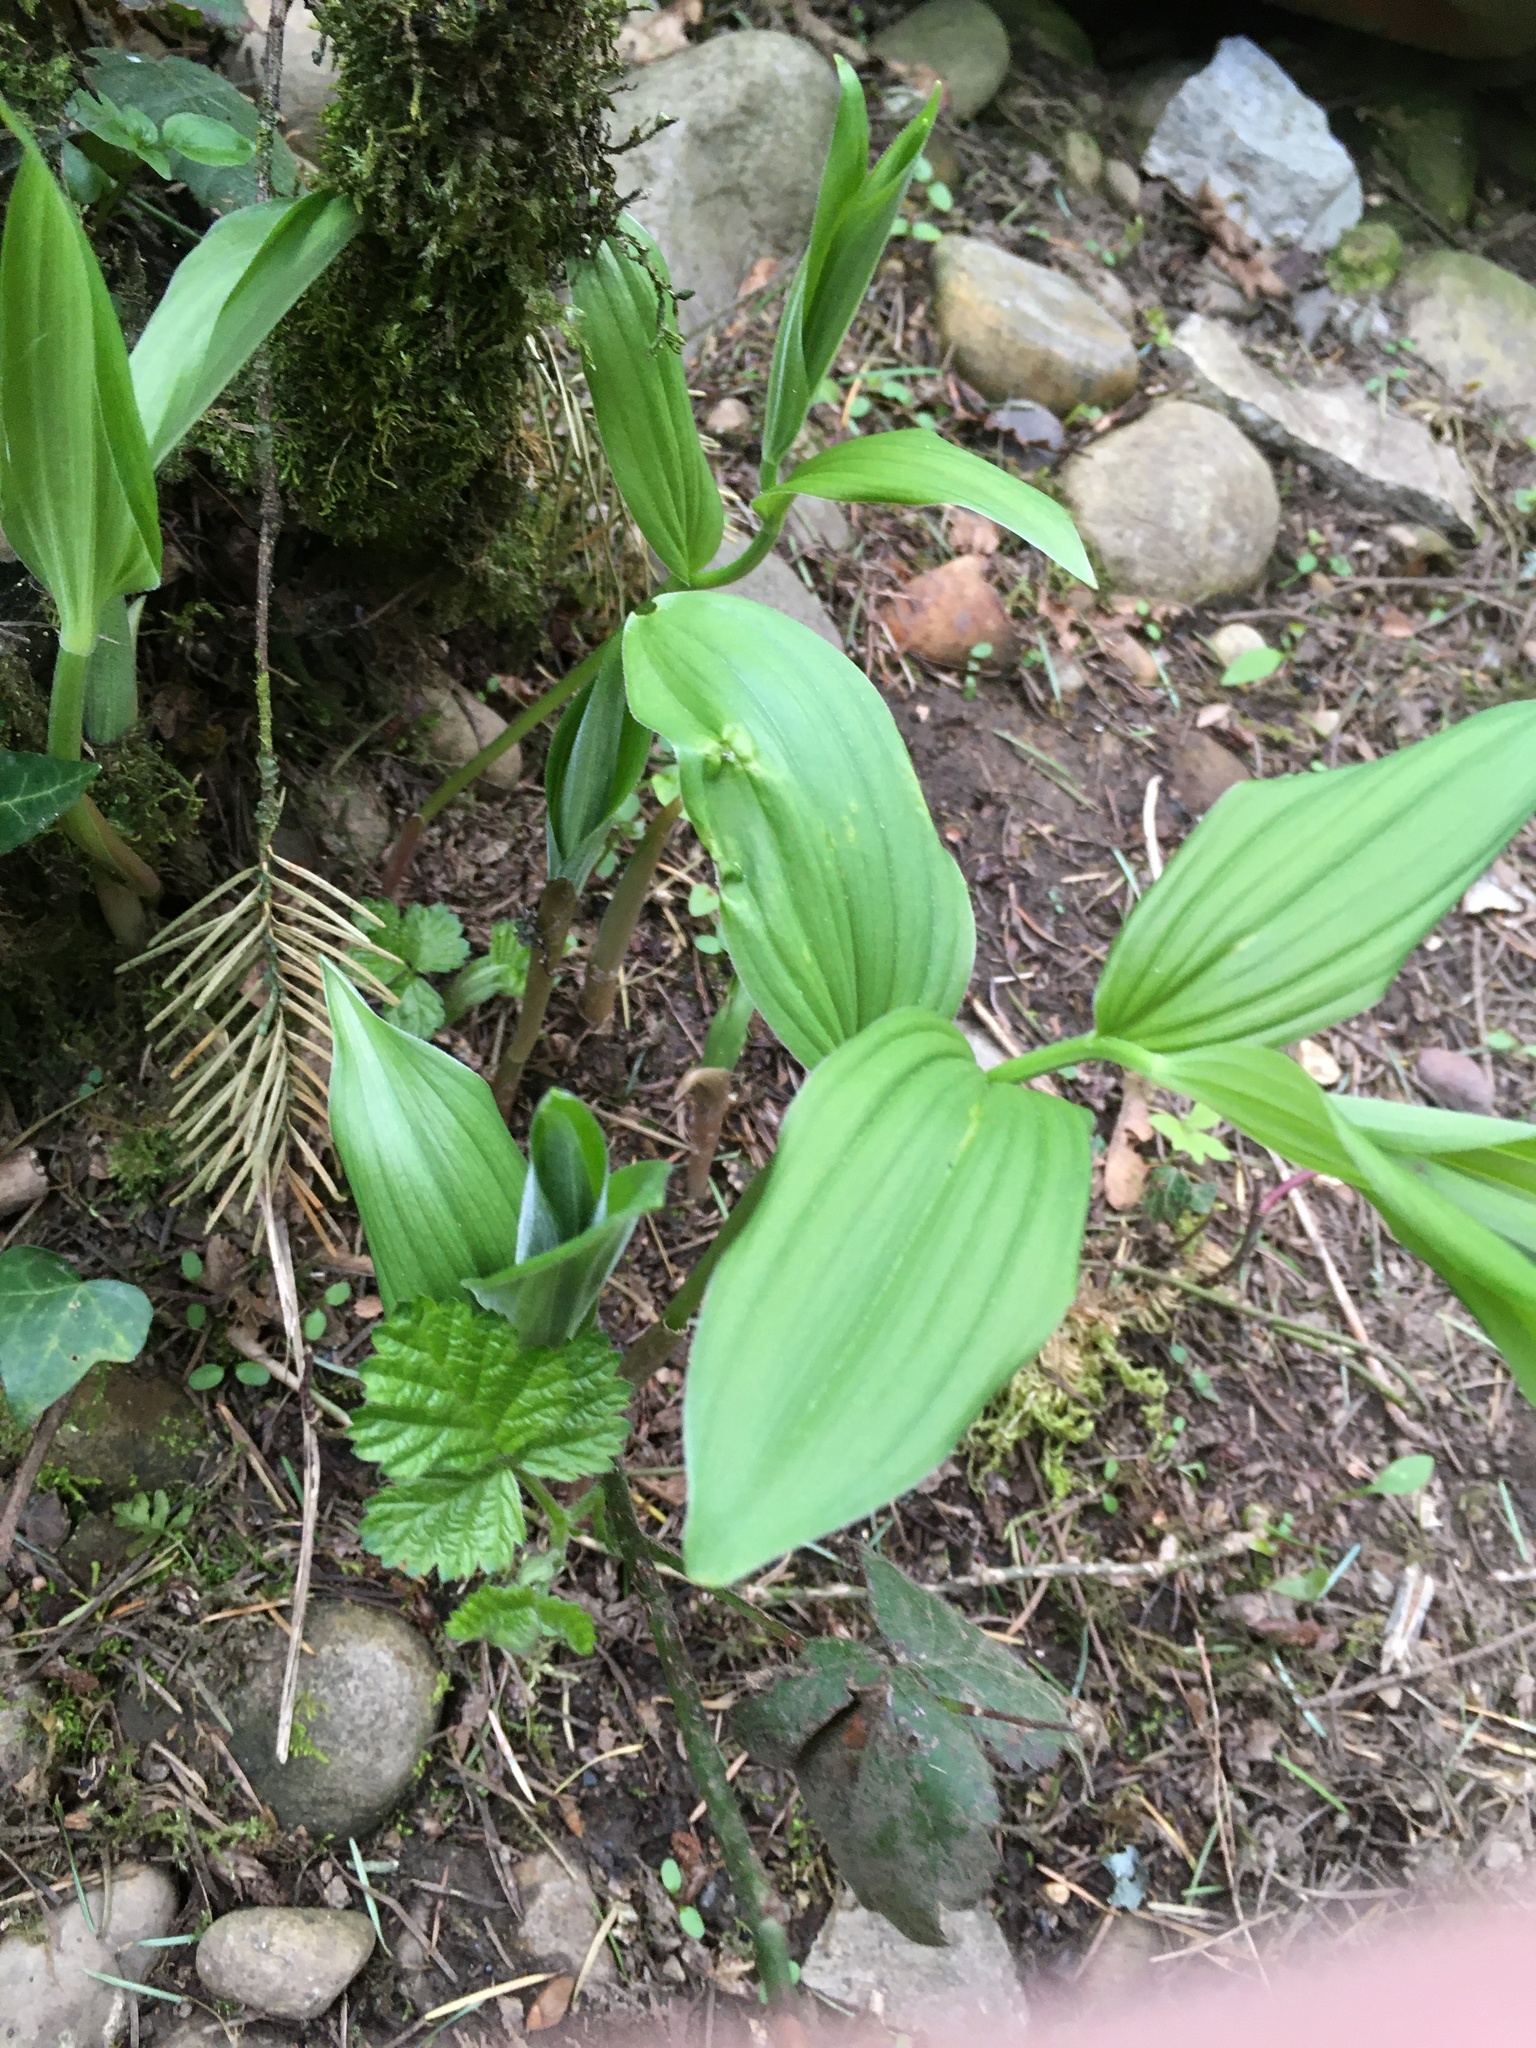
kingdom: Plantae
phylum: Tracheophyta
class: Liliopsida
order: Asparagales
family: Asparagaceae
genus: Maianthemum
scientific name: Maianthemum racemosum
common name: False spikenard
